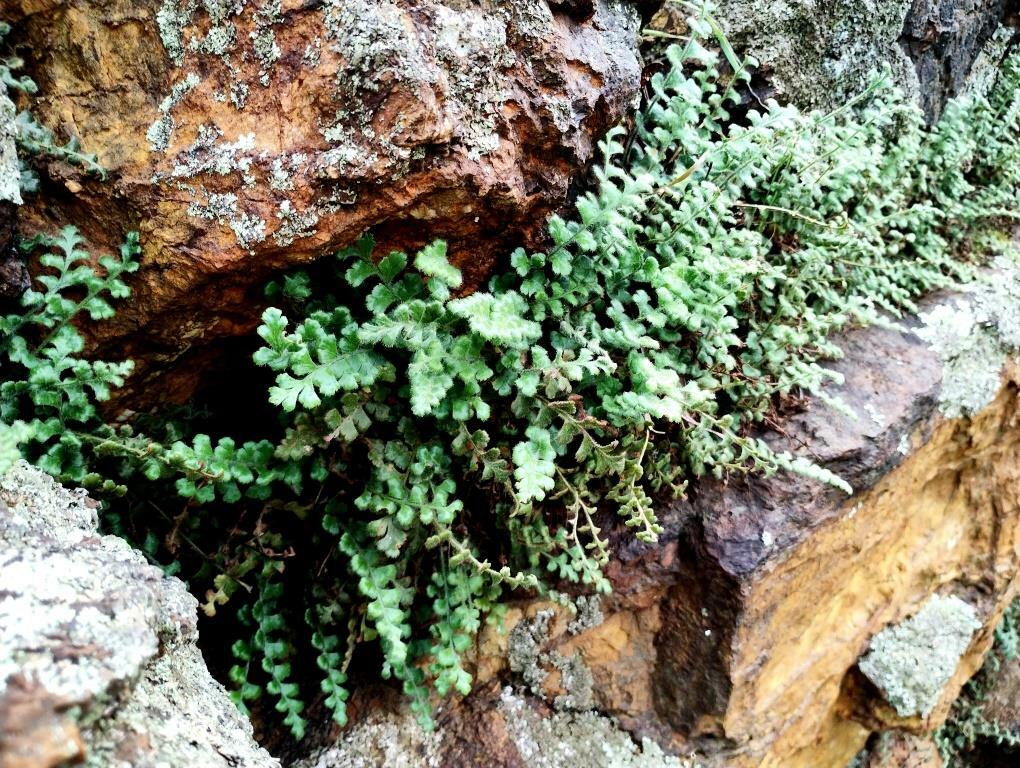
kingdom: Plantae
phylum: Tracheophyta
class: Polypodiopsida
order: Polypodiales
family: Aspleniaceae
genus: Asplenium
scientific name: Asplenium subglandulosum
